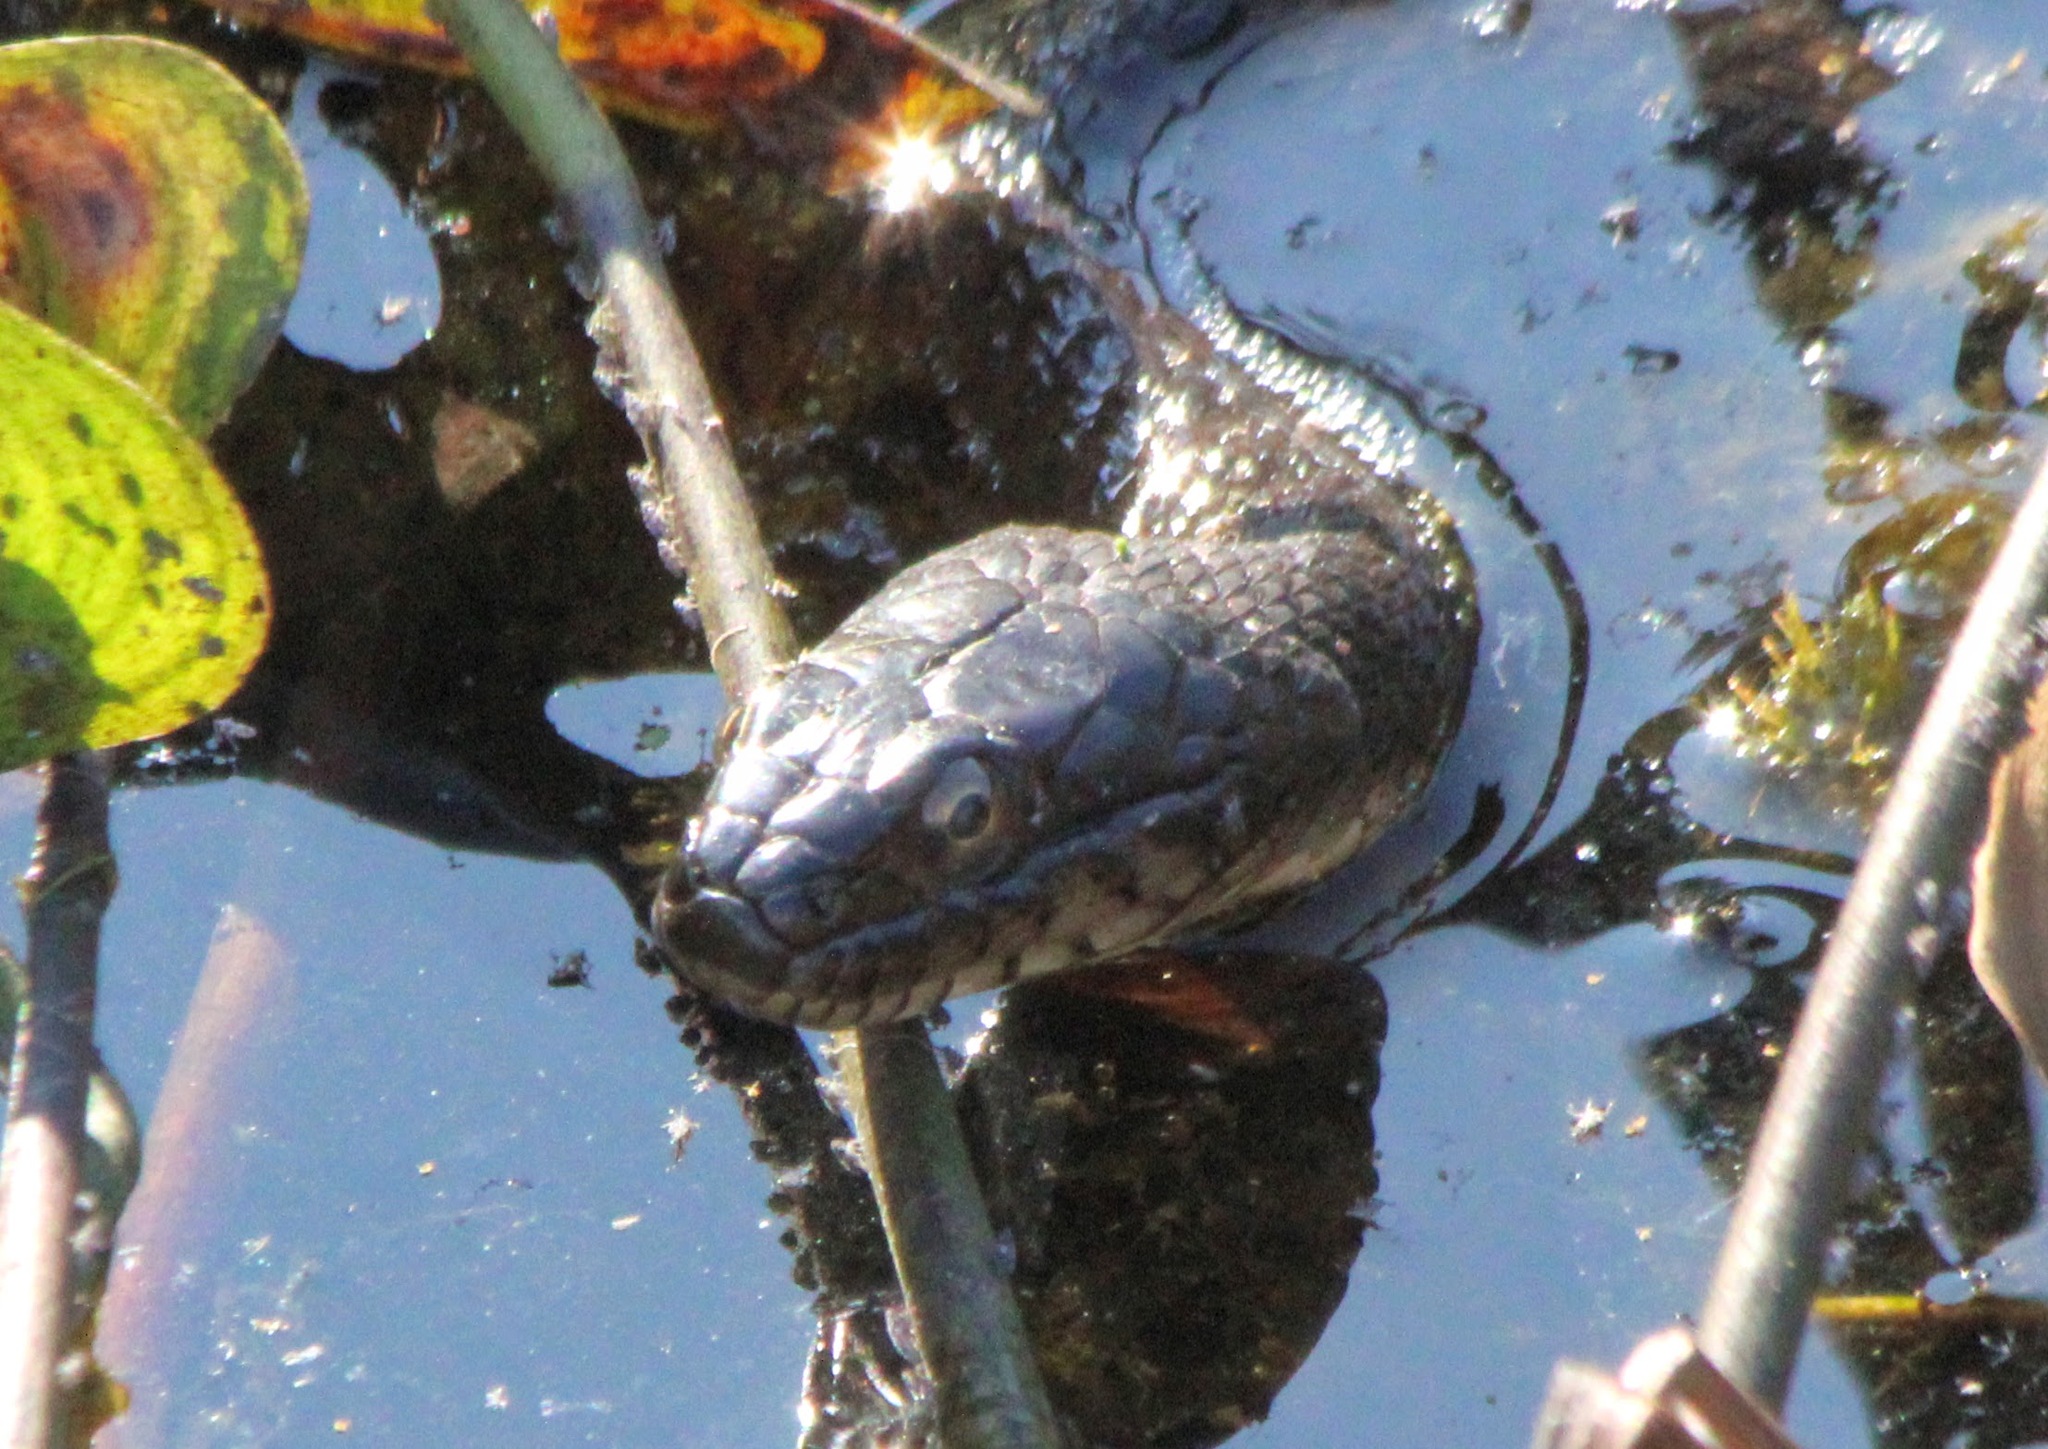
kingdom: Animalia
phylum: Chordata
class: Squamata
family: Colubridae
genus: Nerodia
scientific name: Nerodia sipedon
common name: Northern water snake
